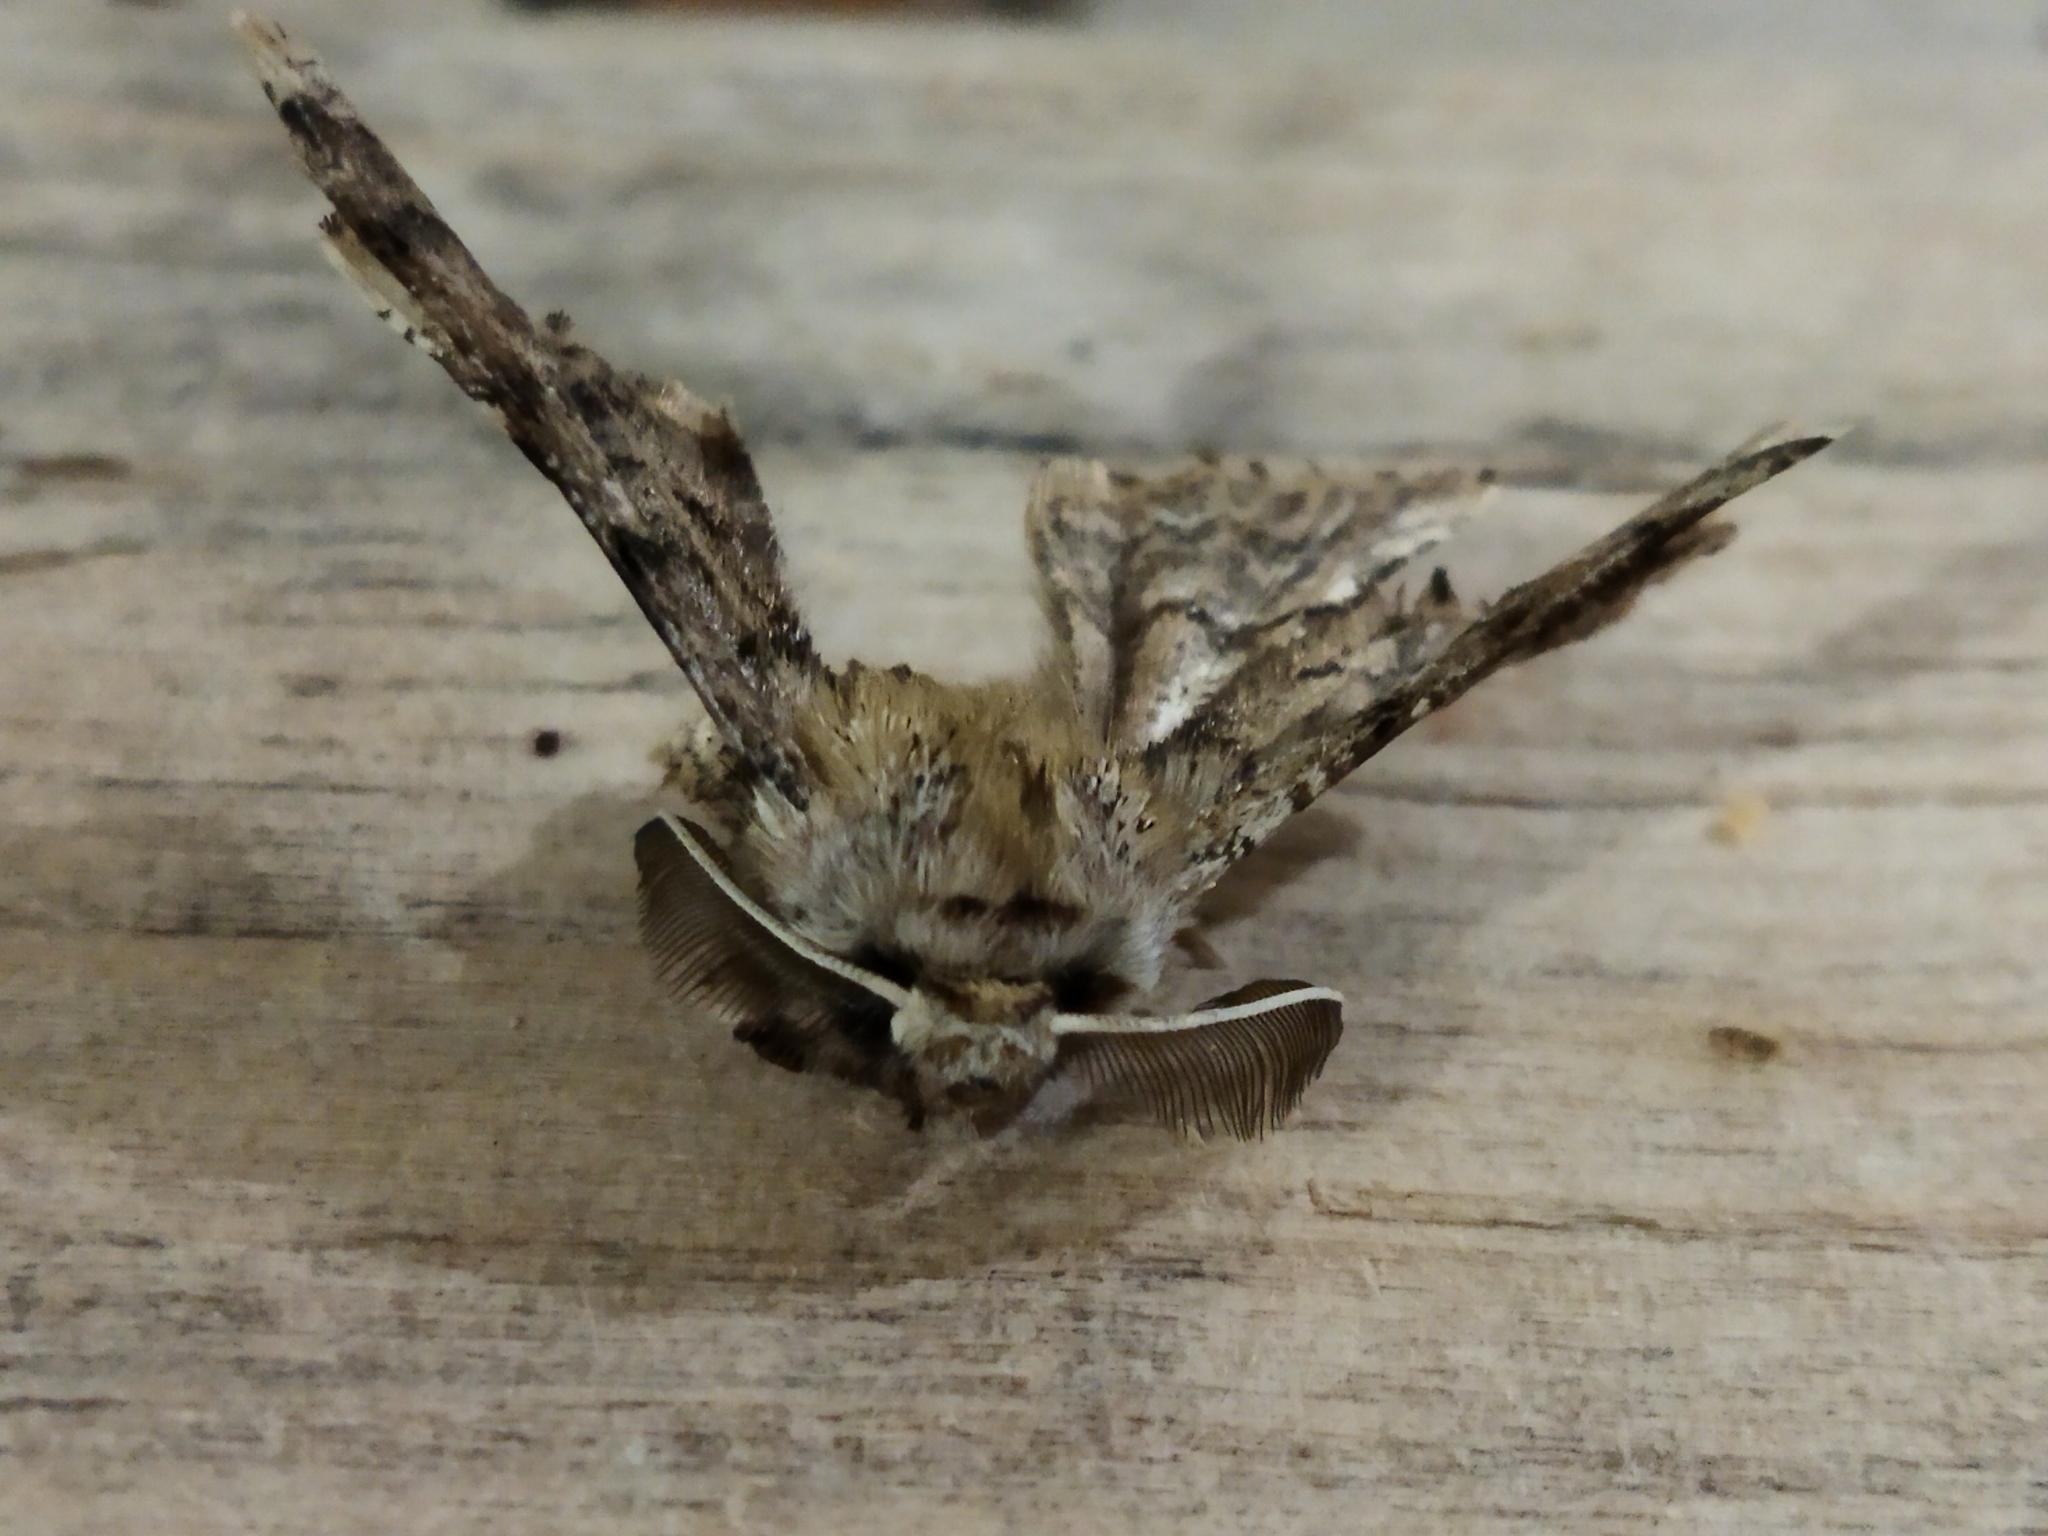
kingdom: Animalia
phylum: Arthropoda
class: Insecta
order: Lepidoptera
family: Geometridae
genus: Apochima
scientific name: Apochima flabellaria
